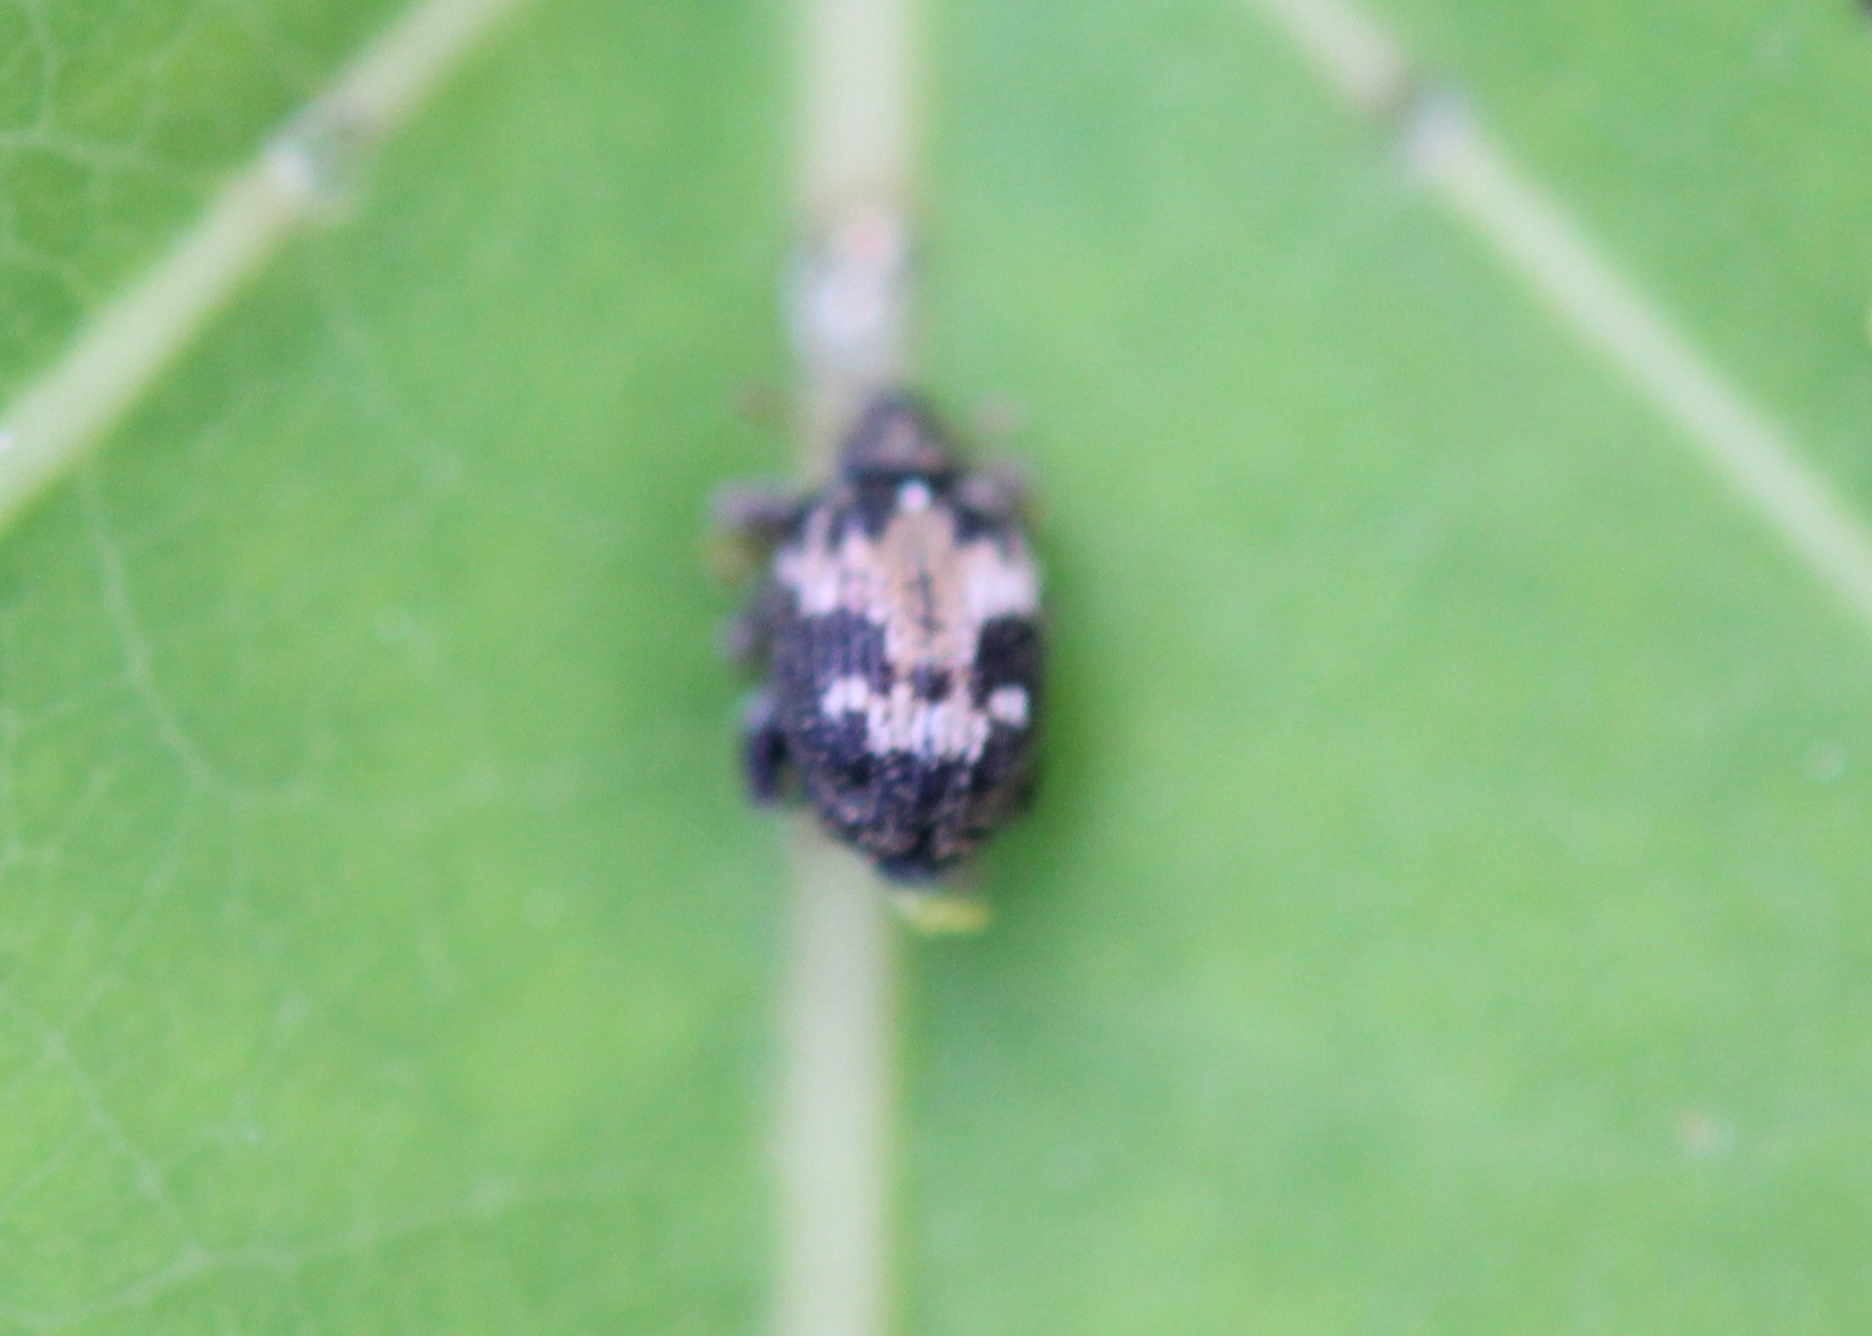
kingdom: Animalia
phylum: Arthropoda
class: Insecta
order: Coleoptera
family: Curculionidae
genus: Tachyerges
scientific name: Tachyerges ephippiatus
